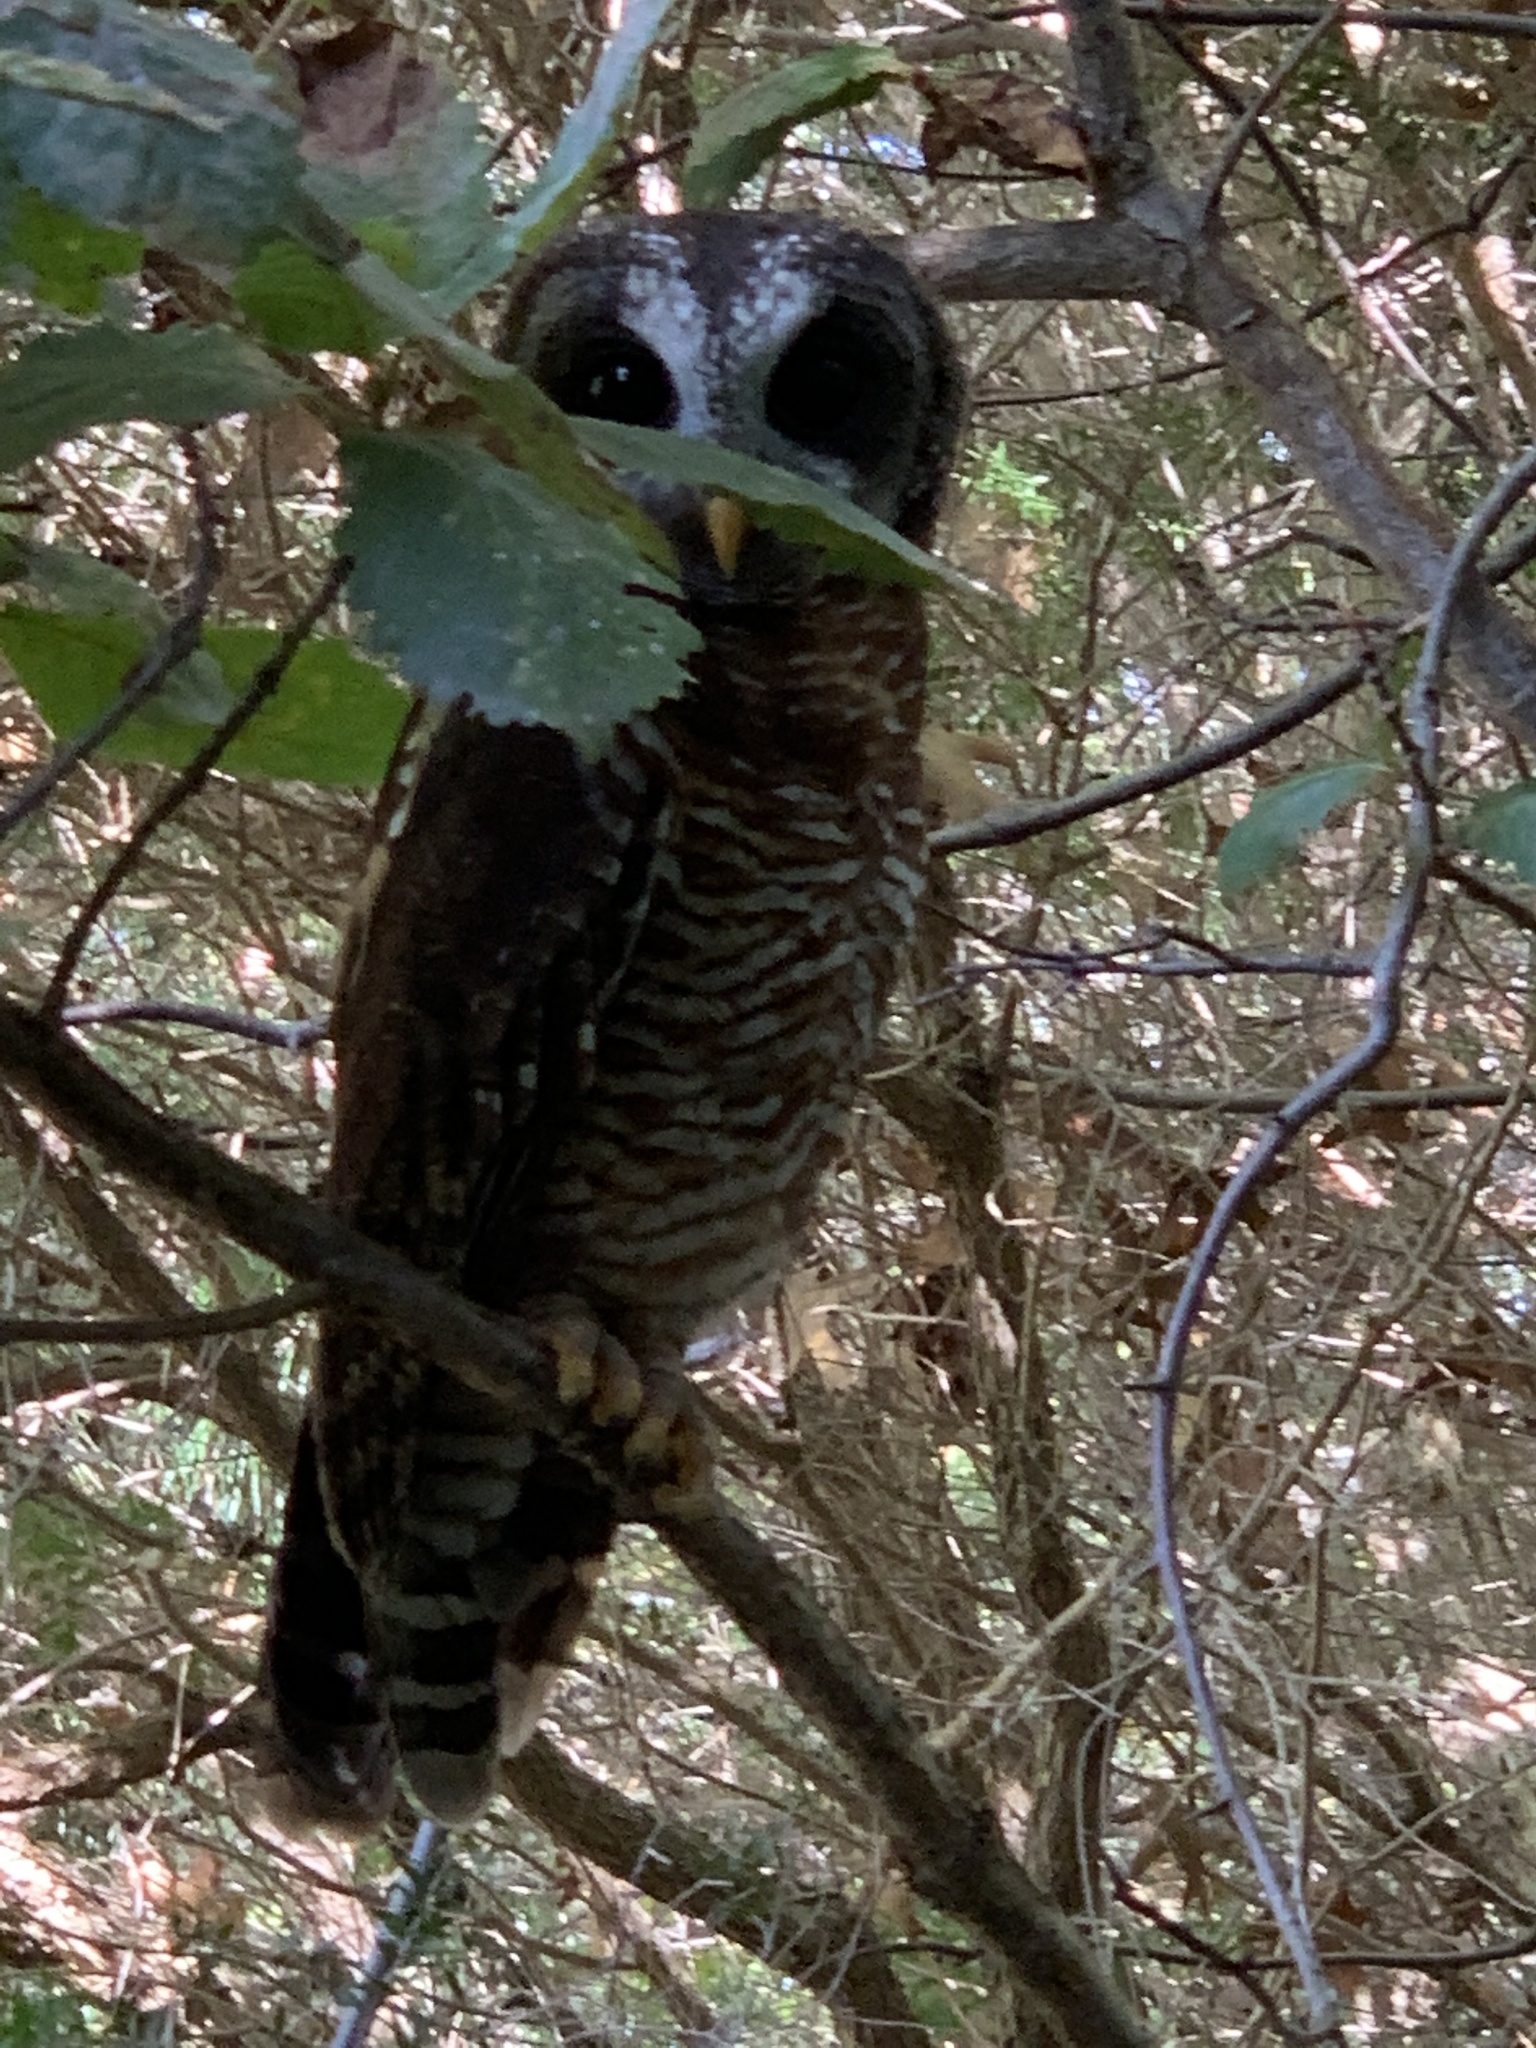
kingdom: Animalia
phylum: Chordata
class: Aves
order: Strigiformes
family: Strigidae
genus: Strix
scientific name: Strix woodfordii
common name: African wood owl
